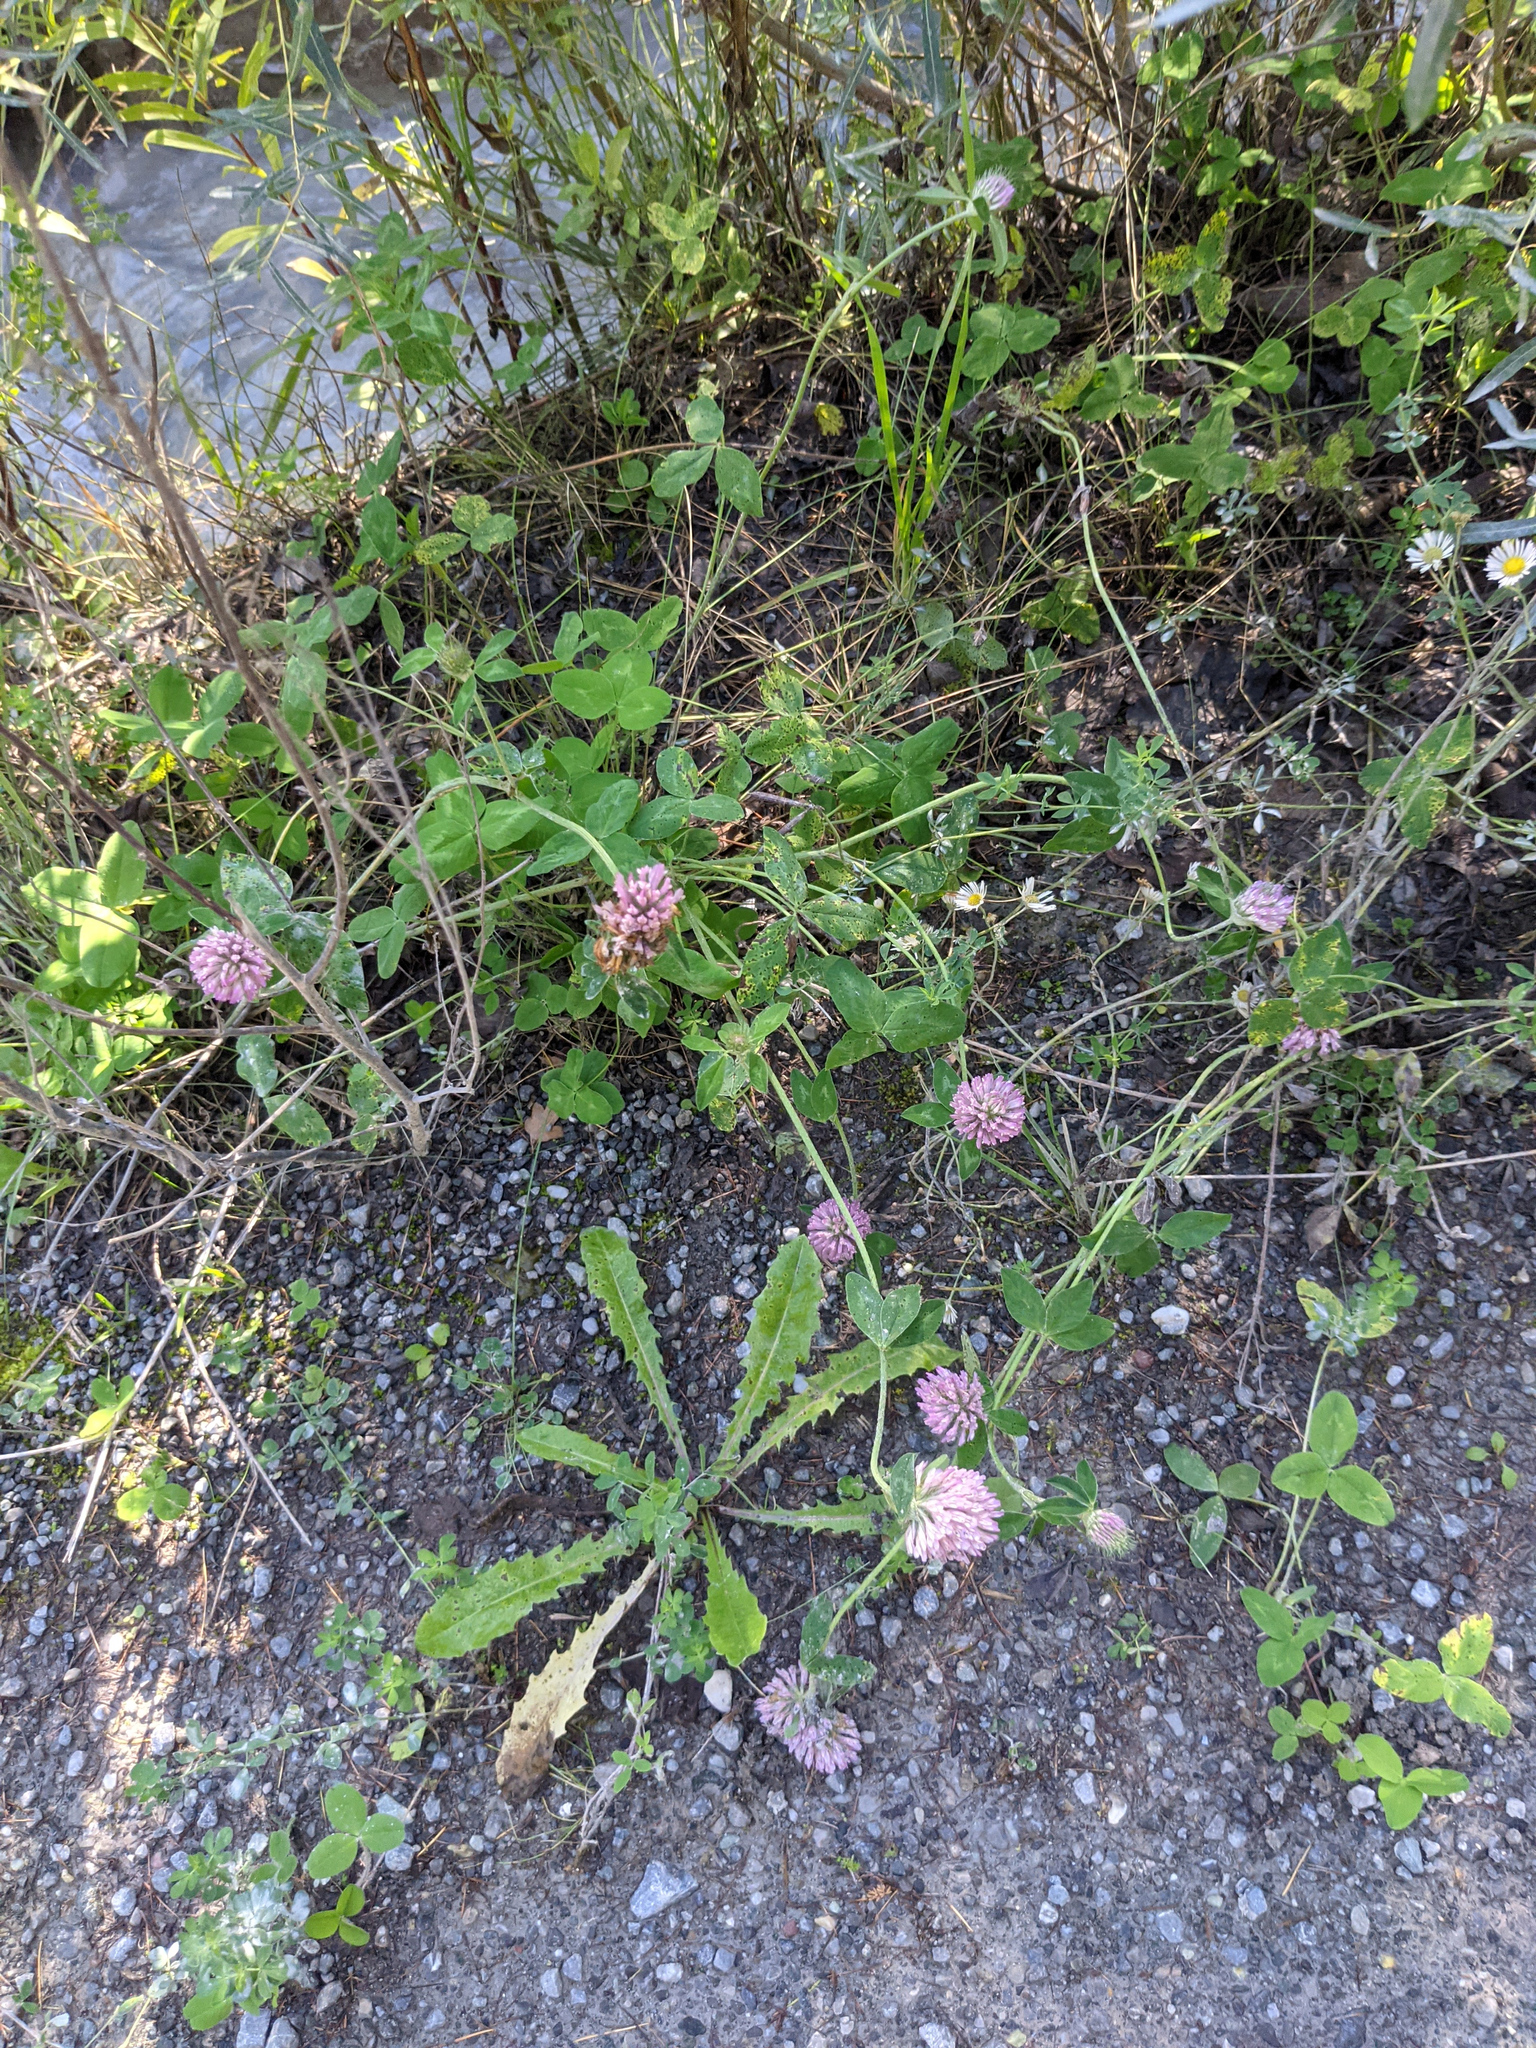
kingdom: Plantae
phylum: Tracheophyta
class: Magnoliopsida
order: Fabales
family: Fabaceae
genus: Trifolium
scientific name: Trifolium pratense
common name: Red clover
